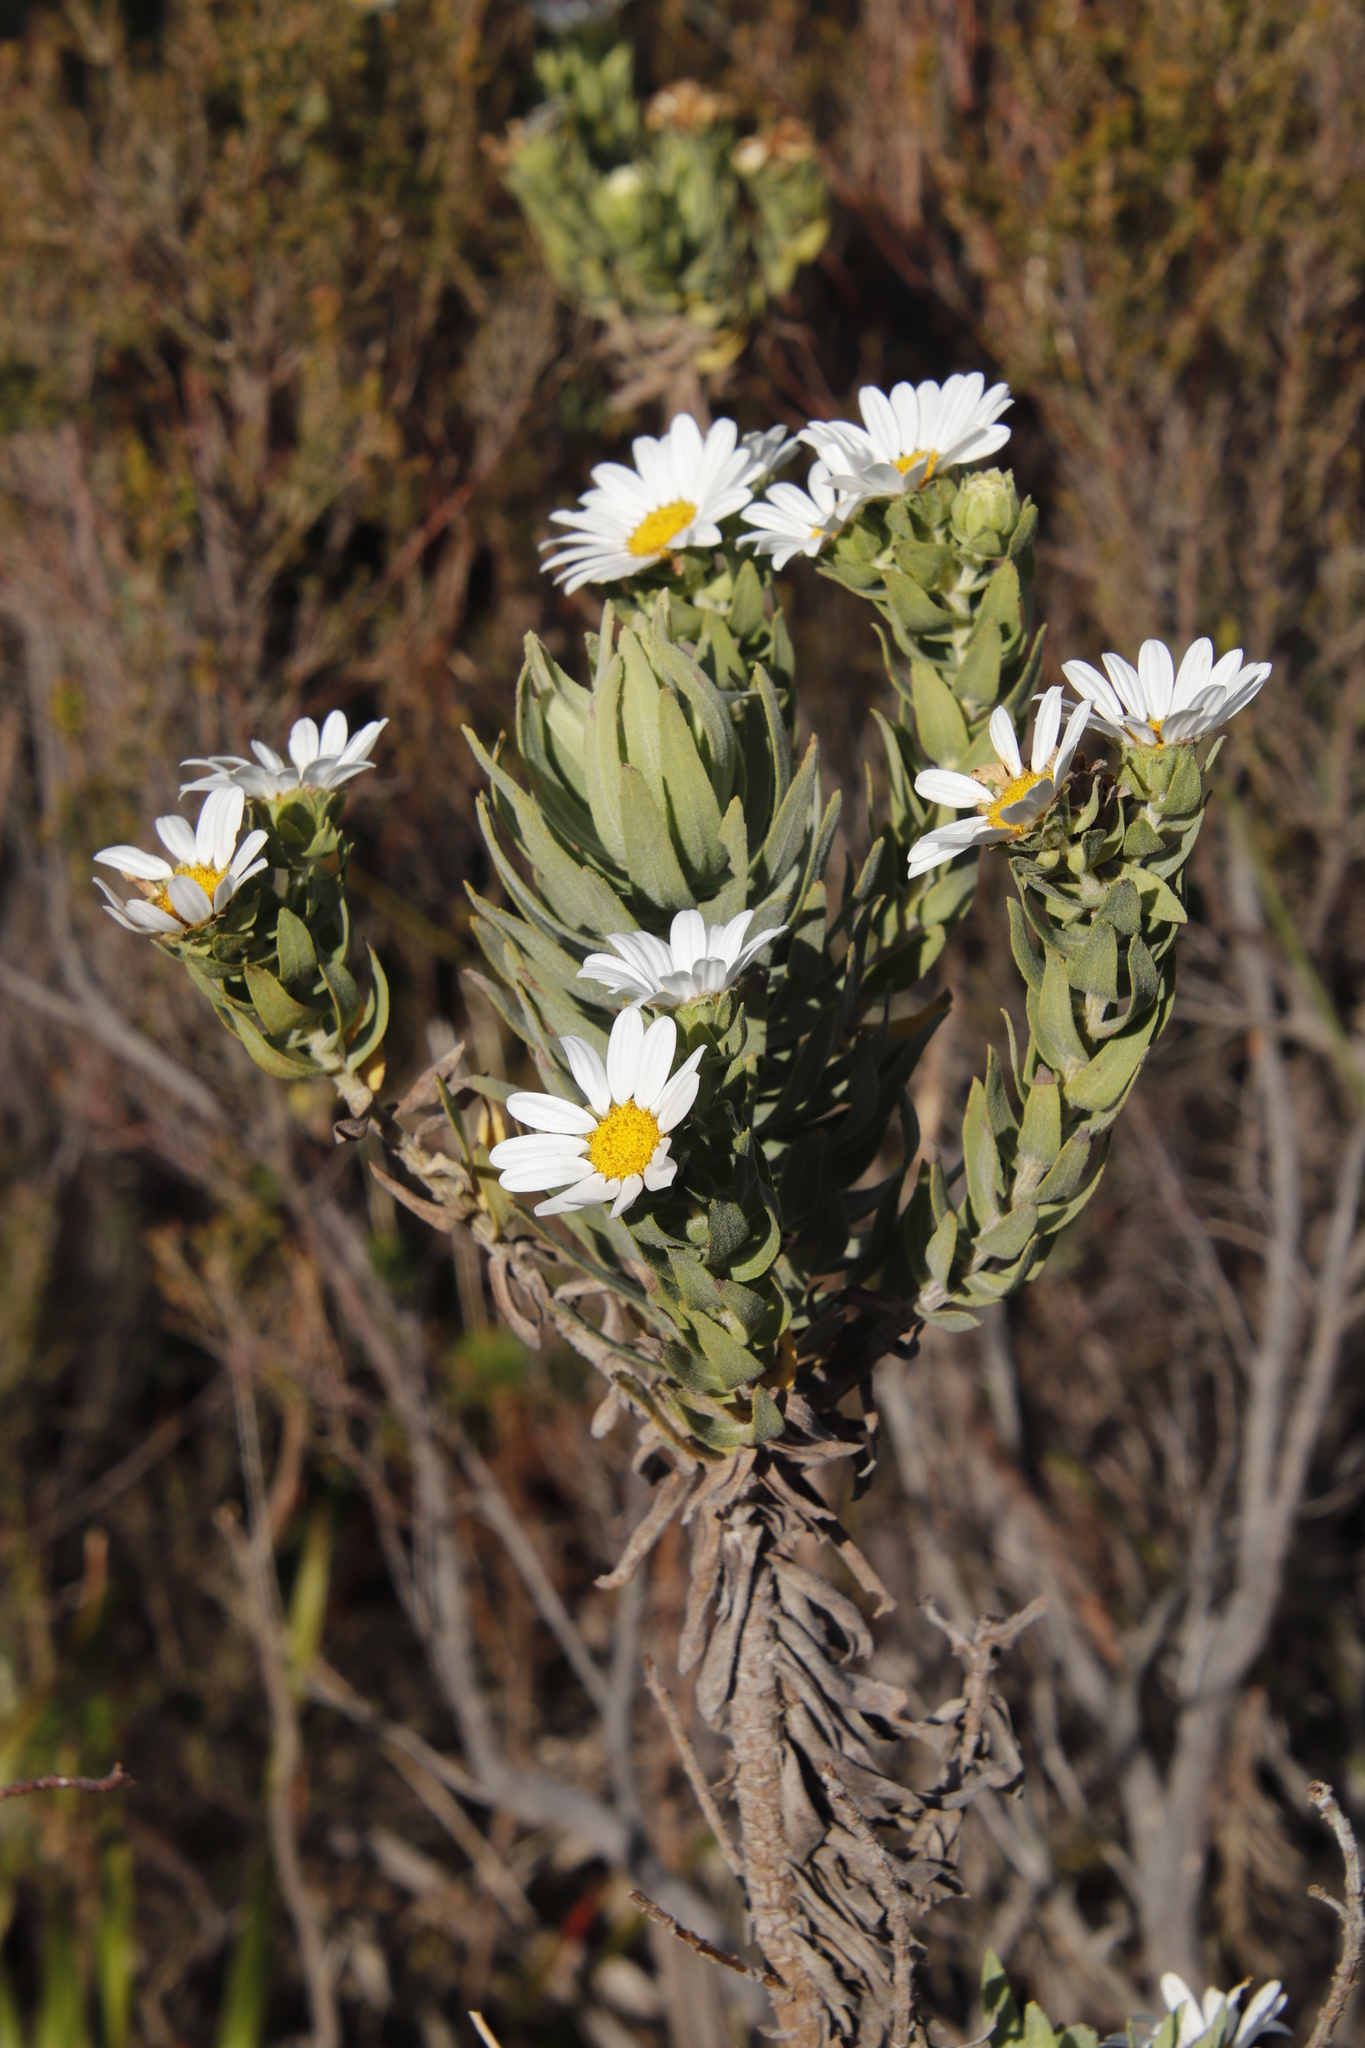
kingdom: Plantae
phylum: Tracheophyta
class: Magnoliopsida
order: Asterales
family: Asteraceae
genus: Osmitopsis
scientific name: Osmitopsis asteriscoides
